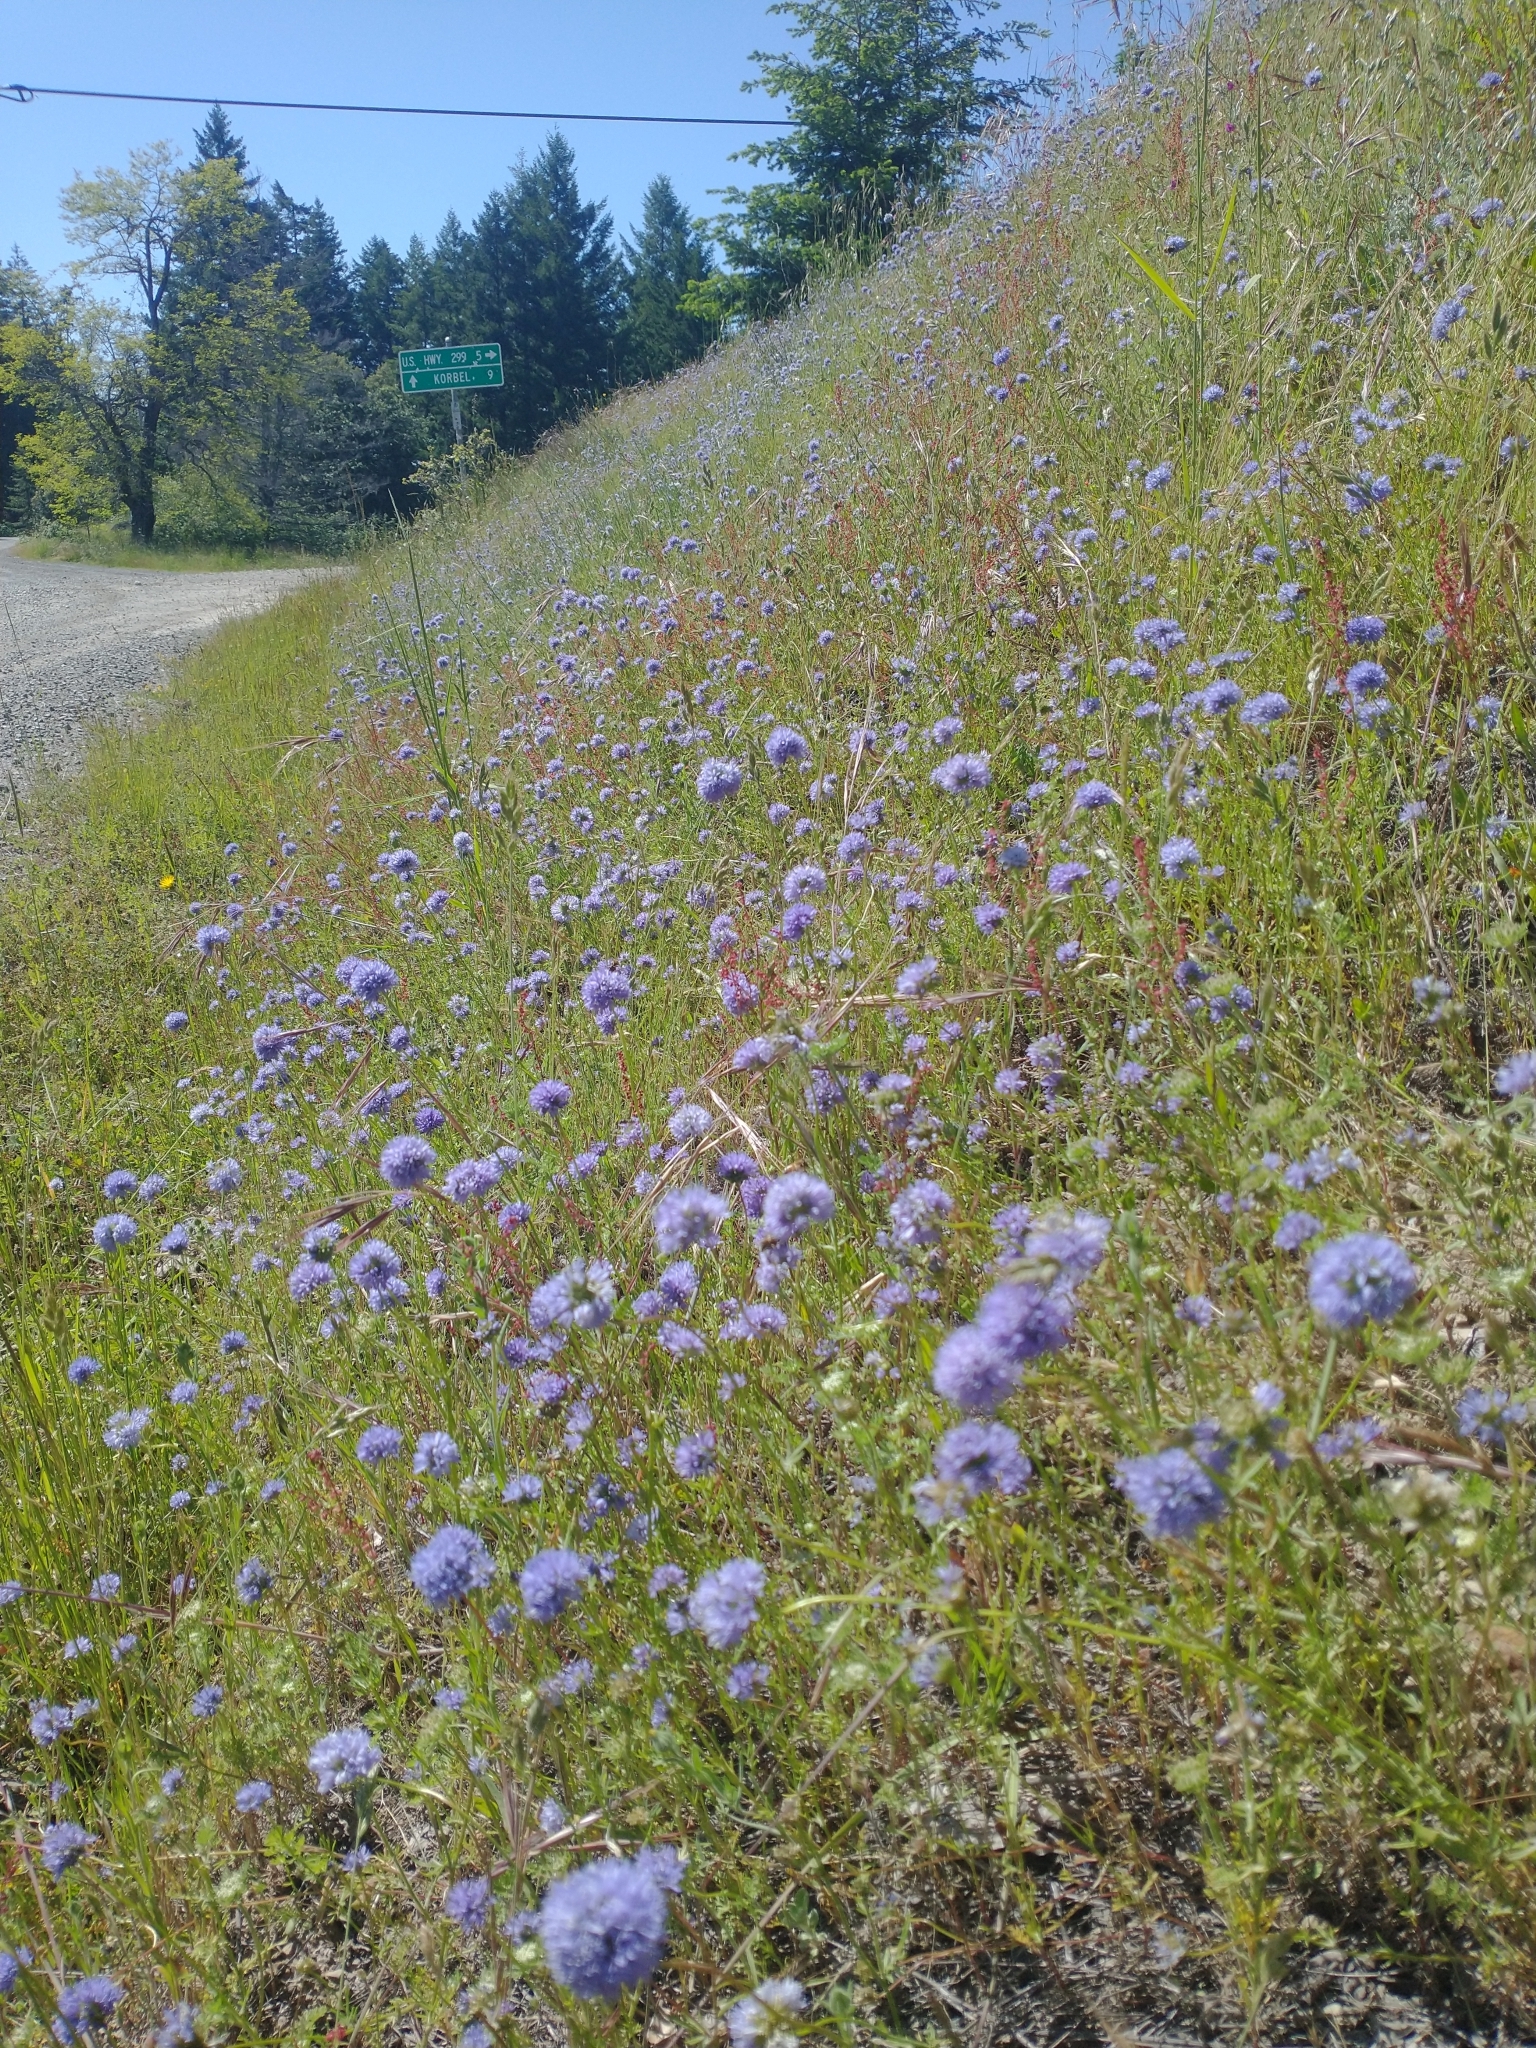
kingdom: Plantae
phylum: Tracheophyta
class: Magnoliopsida
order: Ericales
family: Polemoniaceae
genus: Gilia
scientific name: Gilia capitata
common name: Bluehead gilia
